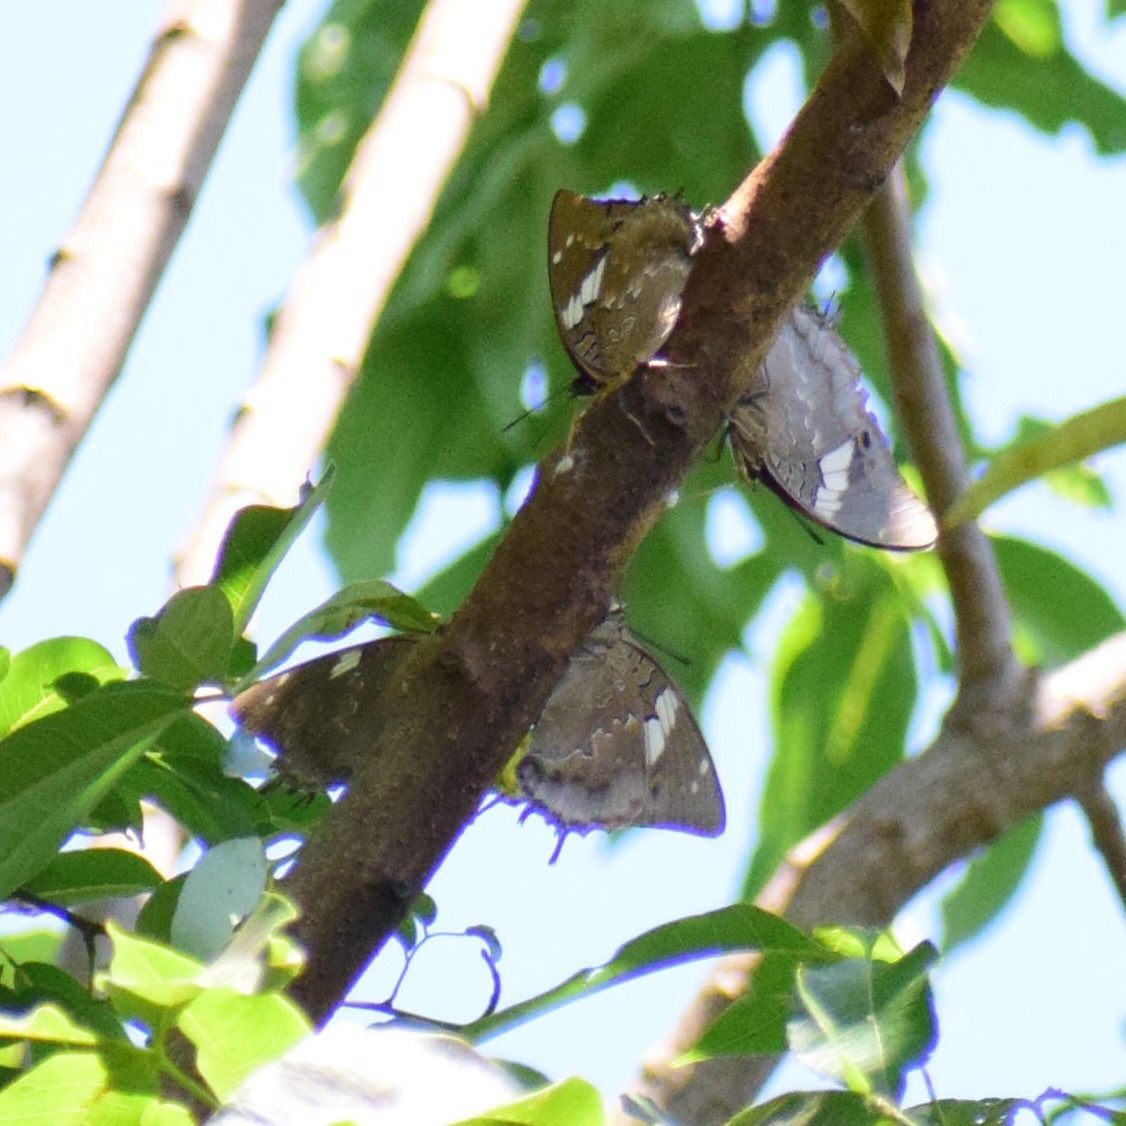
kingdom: Animalia
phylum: Arthropoda
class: Insecta
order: Lepidoptera
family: Nymphalidae
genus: Charaxes
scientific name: Charaxes cithaeron
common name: Blue-spotted charaxes
